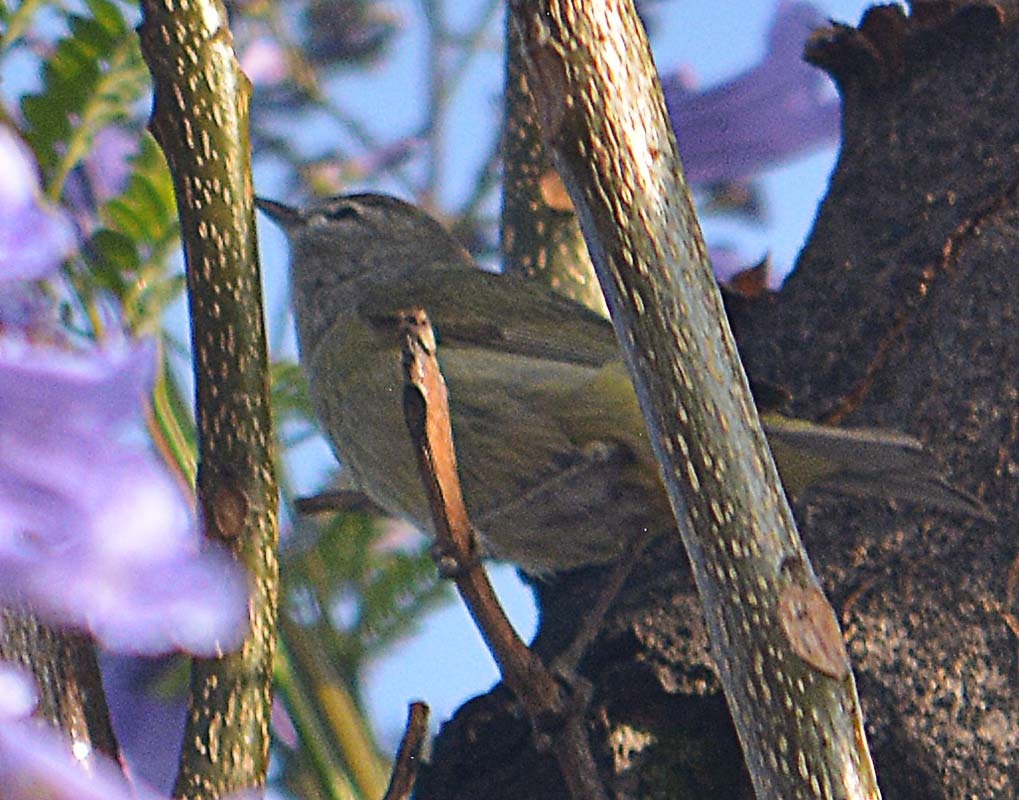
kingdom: Animalia
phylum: Chordata
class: Aves
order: Passeriformes
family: Parulidae
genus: Leiothlypis
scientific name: Leiothlypis celata
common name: Orange-crowned warbler
